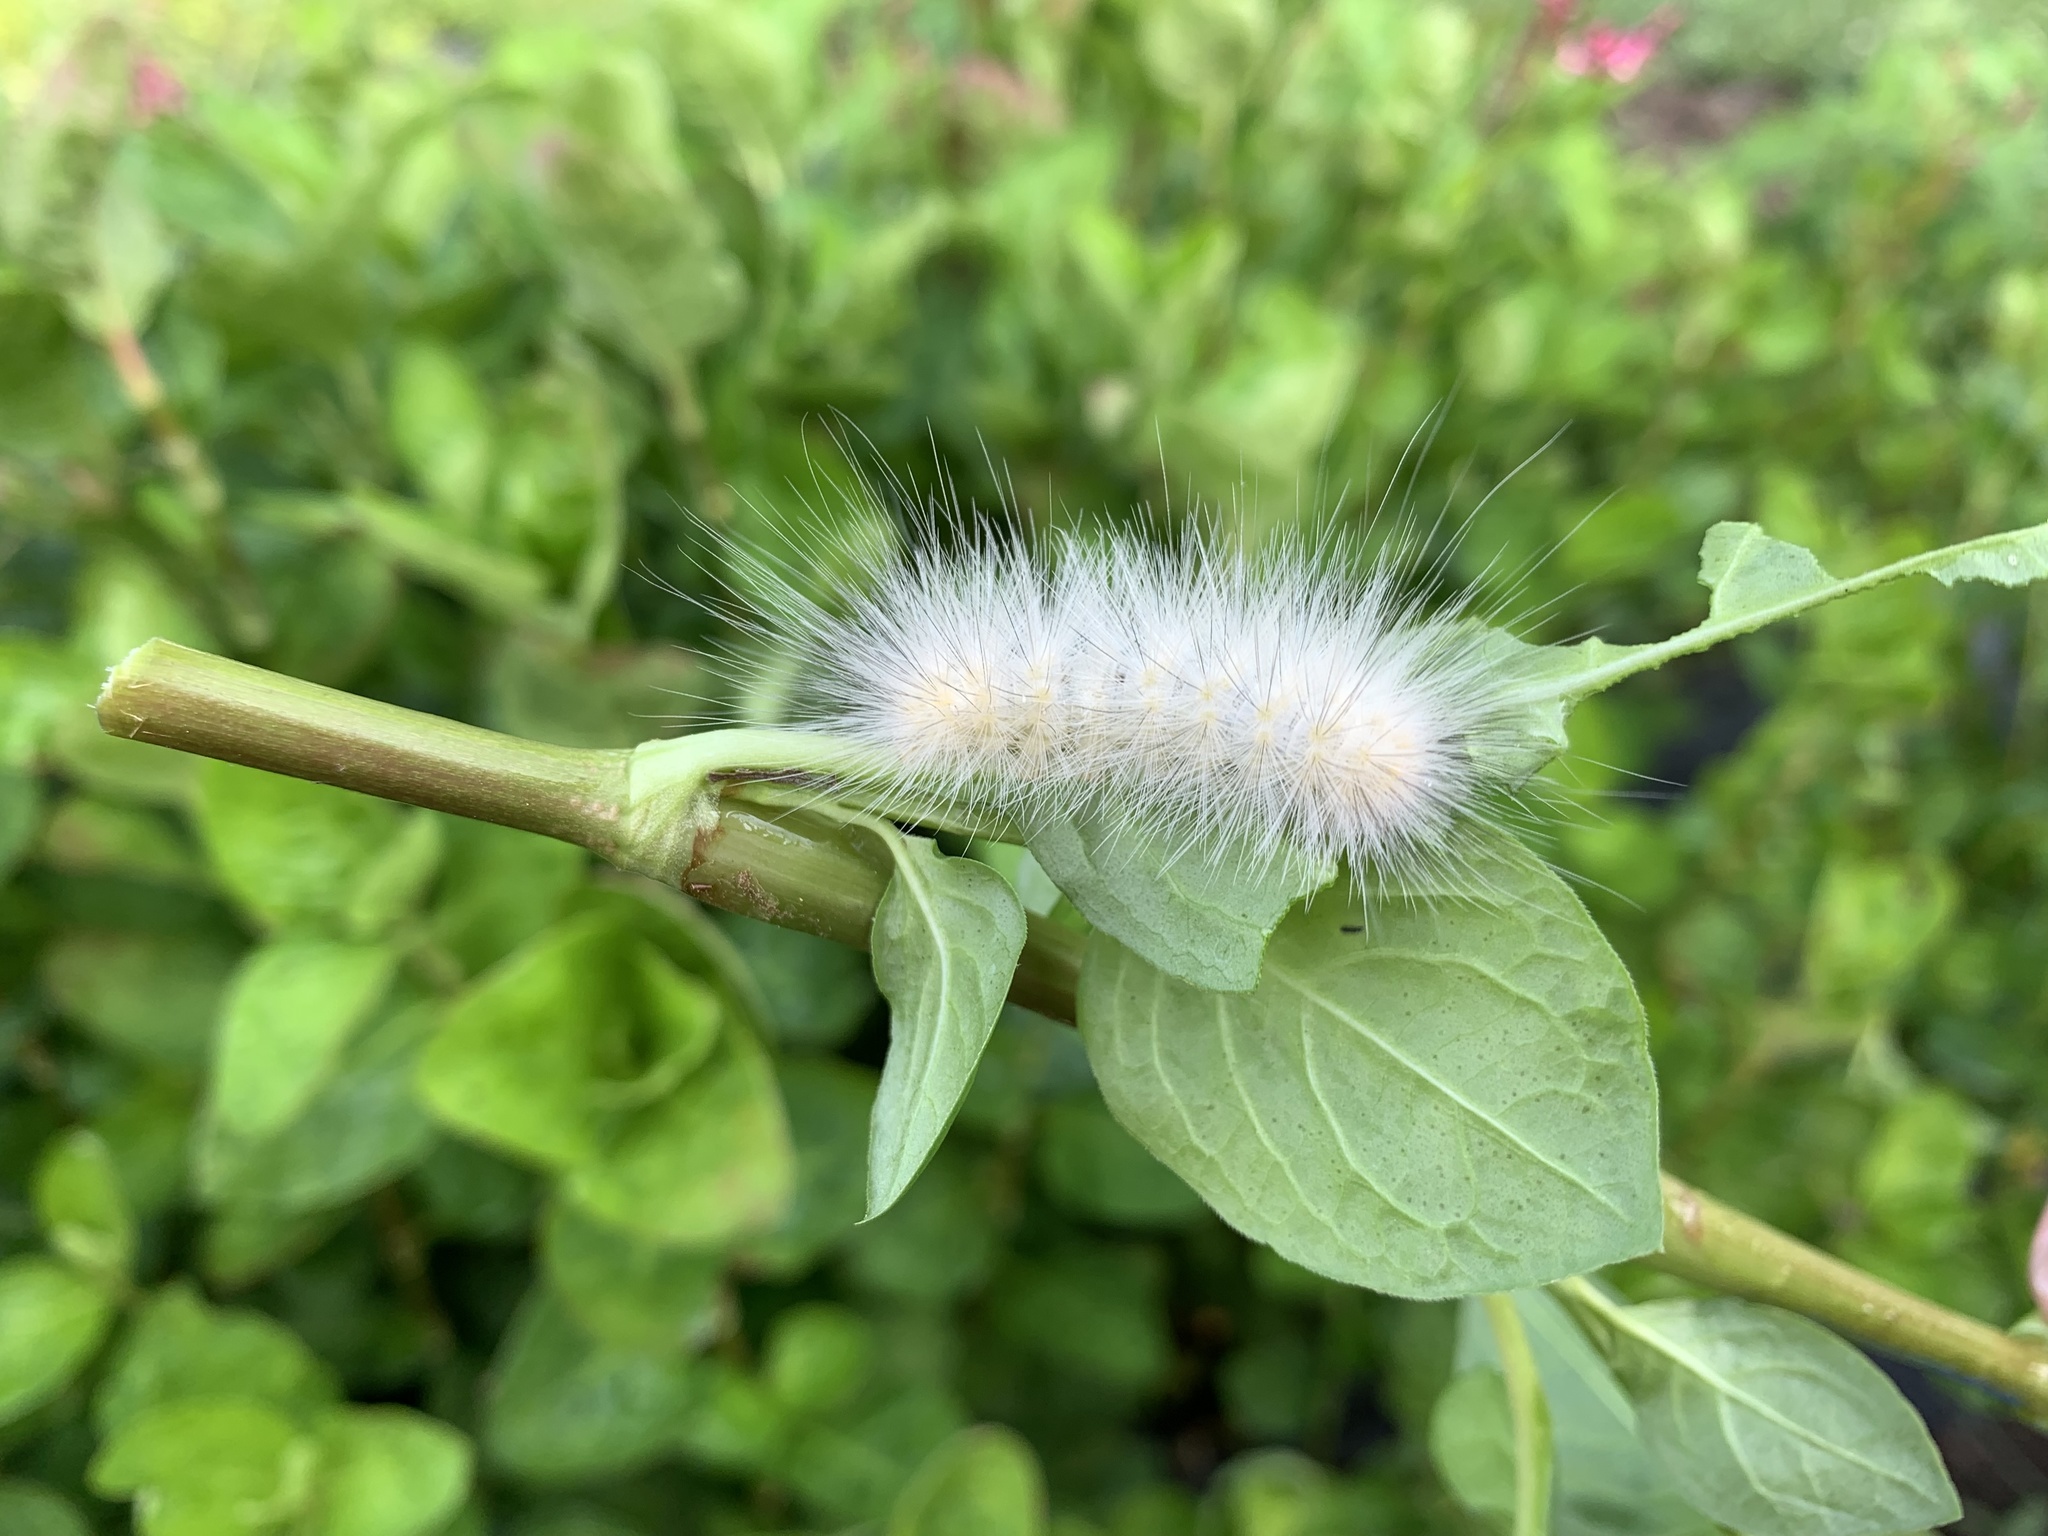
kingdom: Animalia
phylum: Arthropoda
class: Insecta
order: Lepidoptera
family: Erebidae
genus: Spilosoma
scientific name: Spilosoma virginica
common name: Virginia tiger moth
